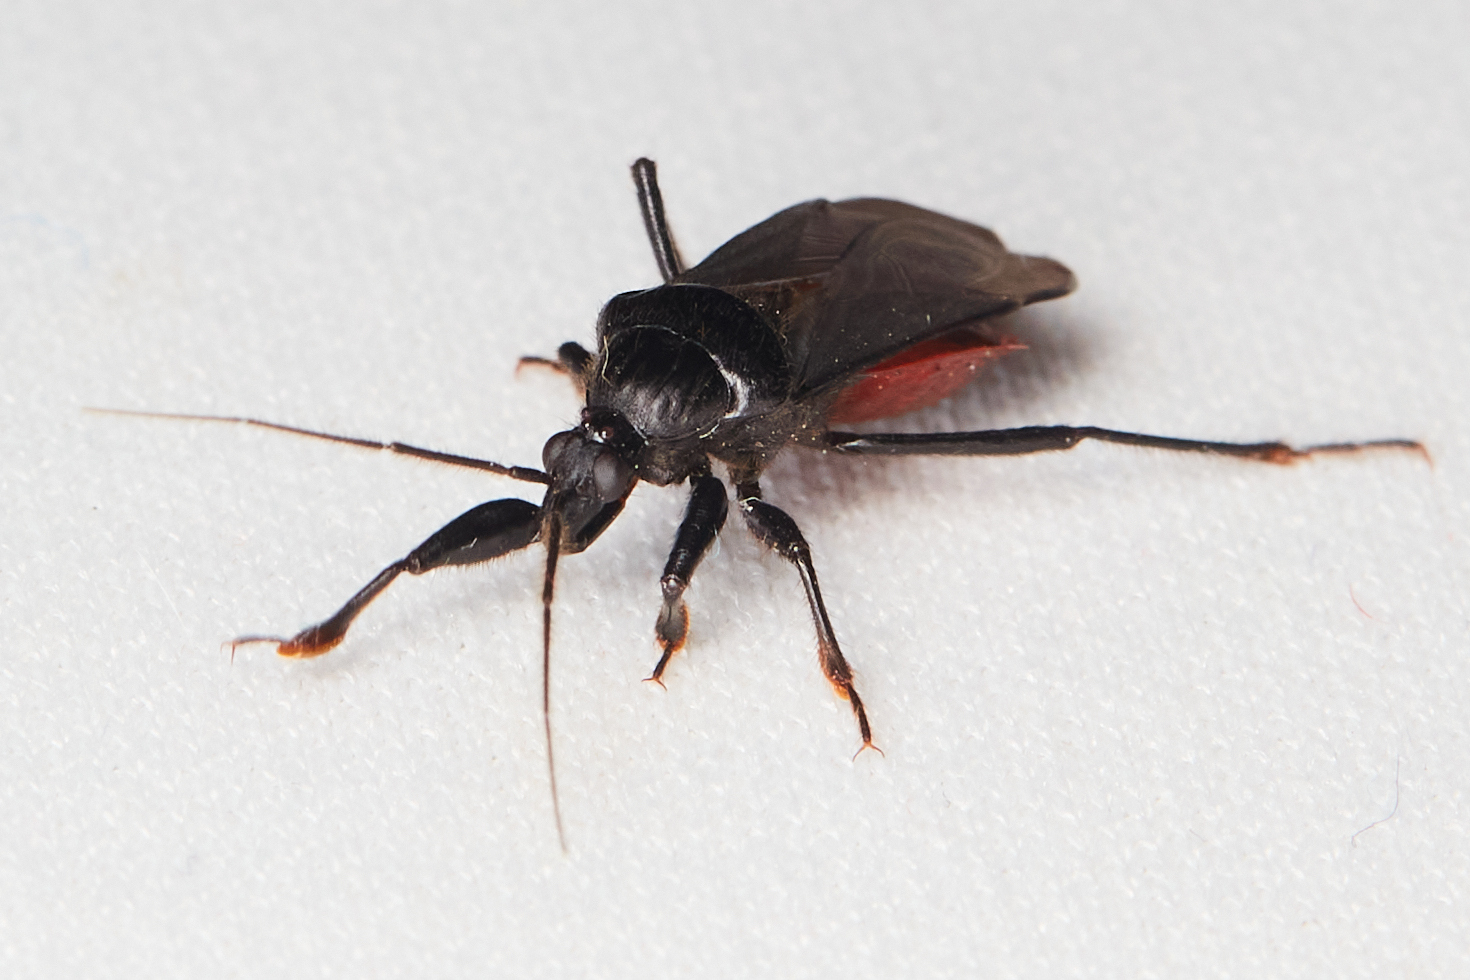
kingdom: Animalia
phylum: Arthropoda
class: Insecta
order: Hemiptera
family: Reduviidae
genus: Melanolestes
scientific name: Melanolestes picipes
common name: Assassin bug
